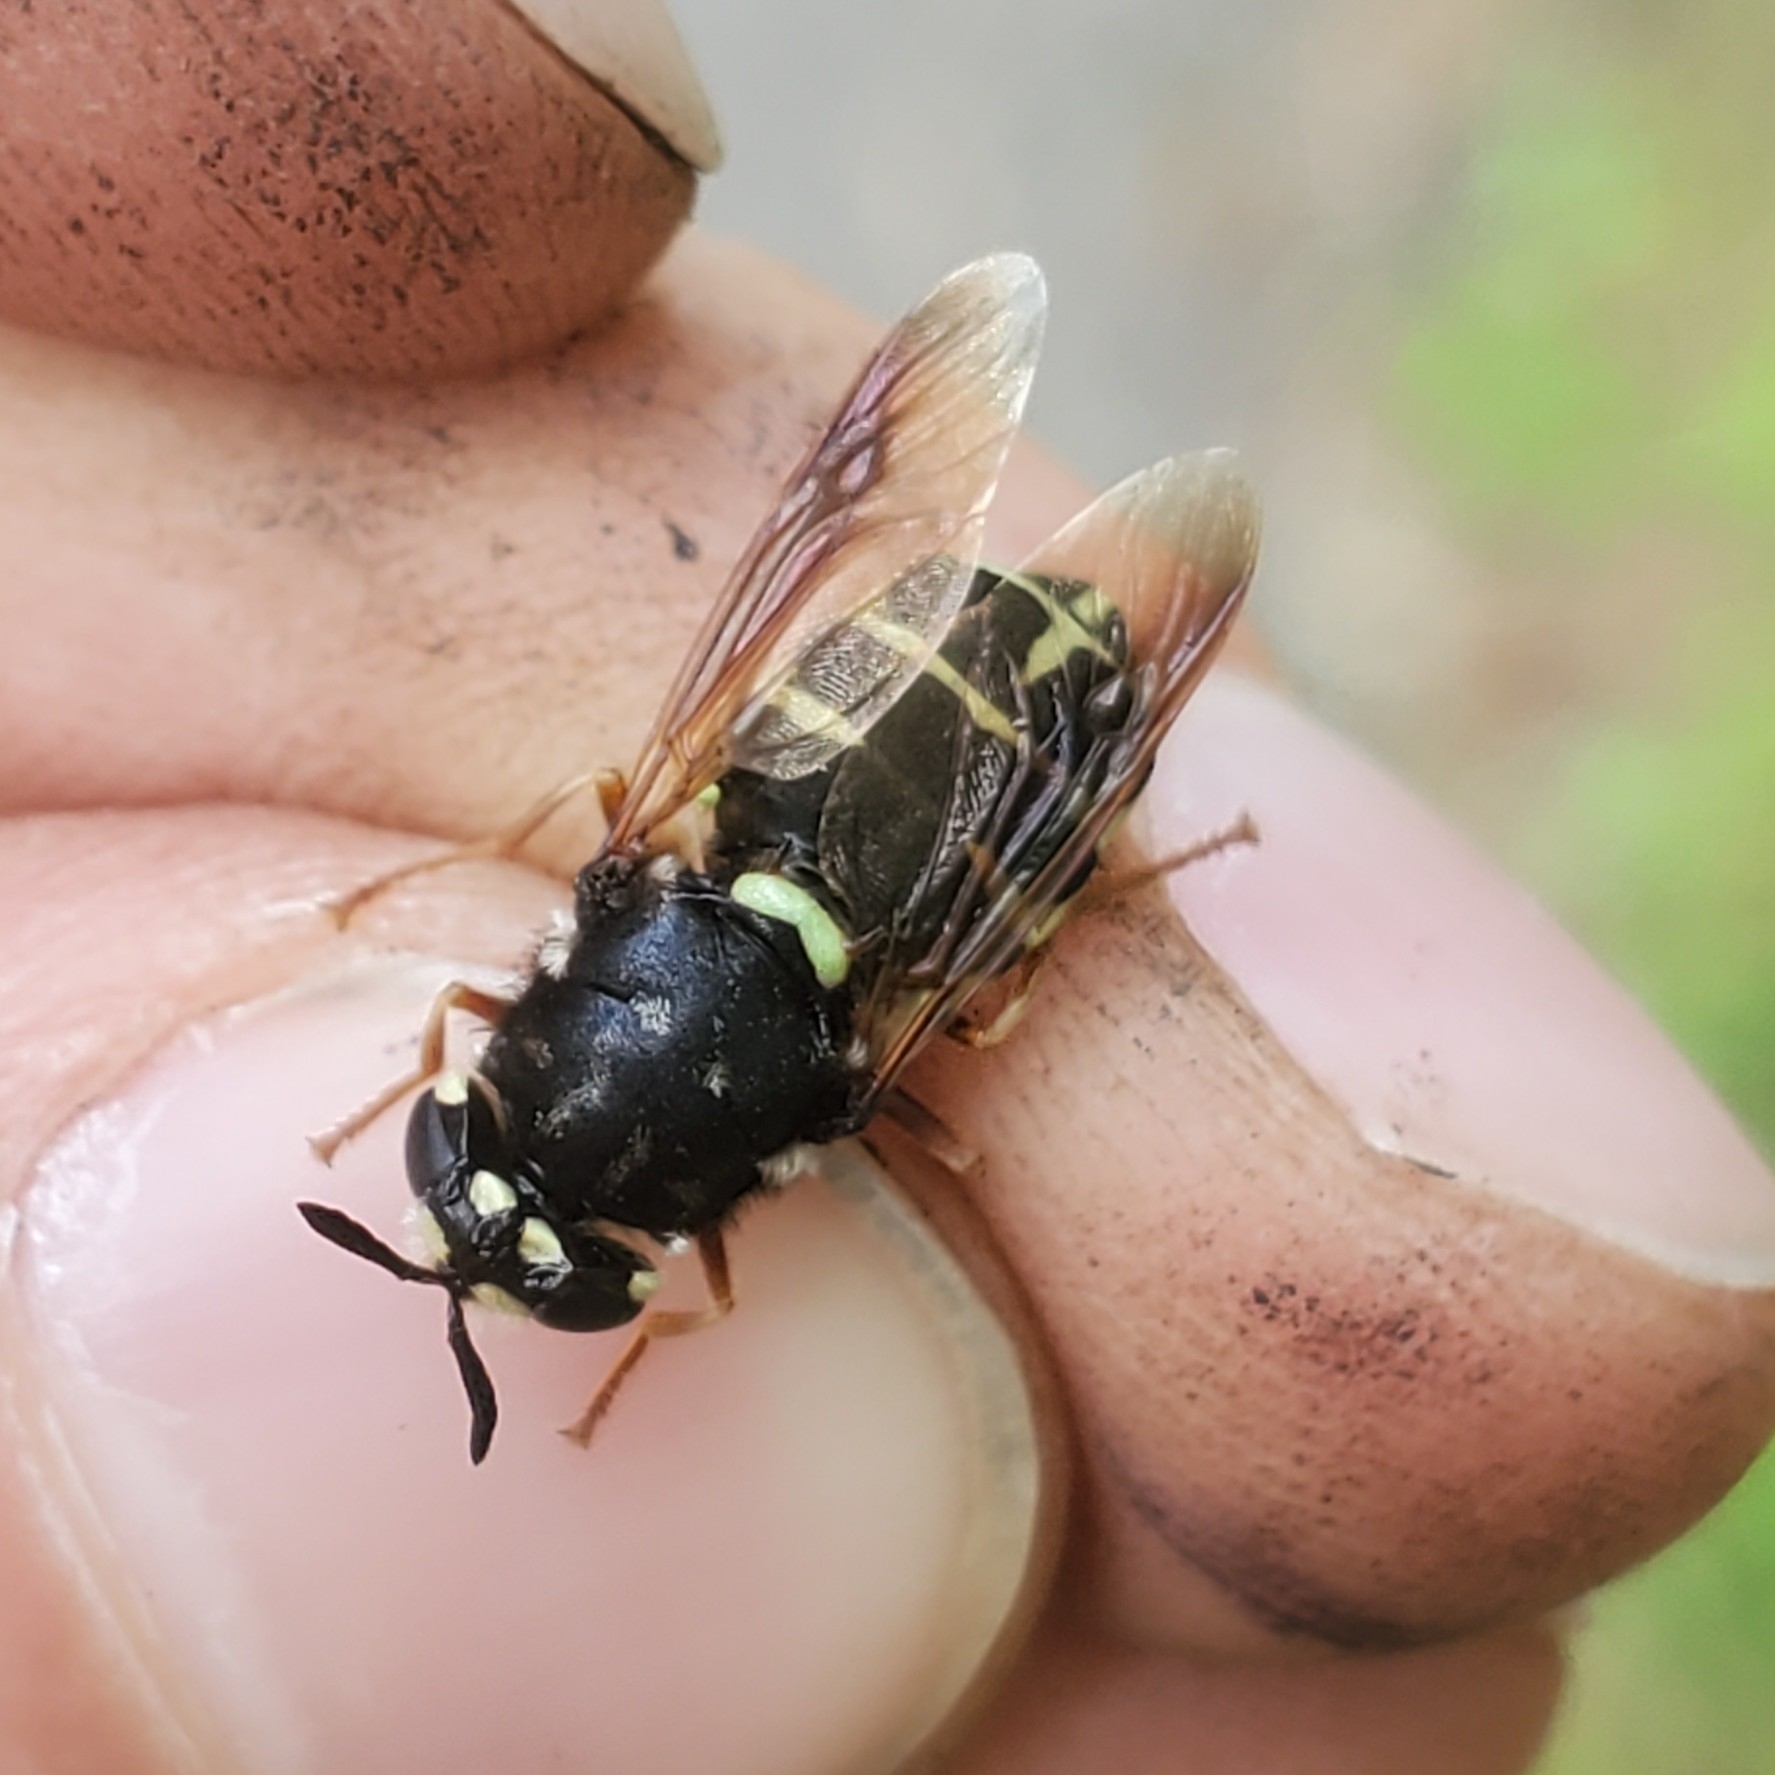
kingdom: Animalia
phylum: Arthropoda
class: Insecta
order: Diptera
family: Stratiomyidae
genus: Stratiomys
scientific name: Stratiomys badia
